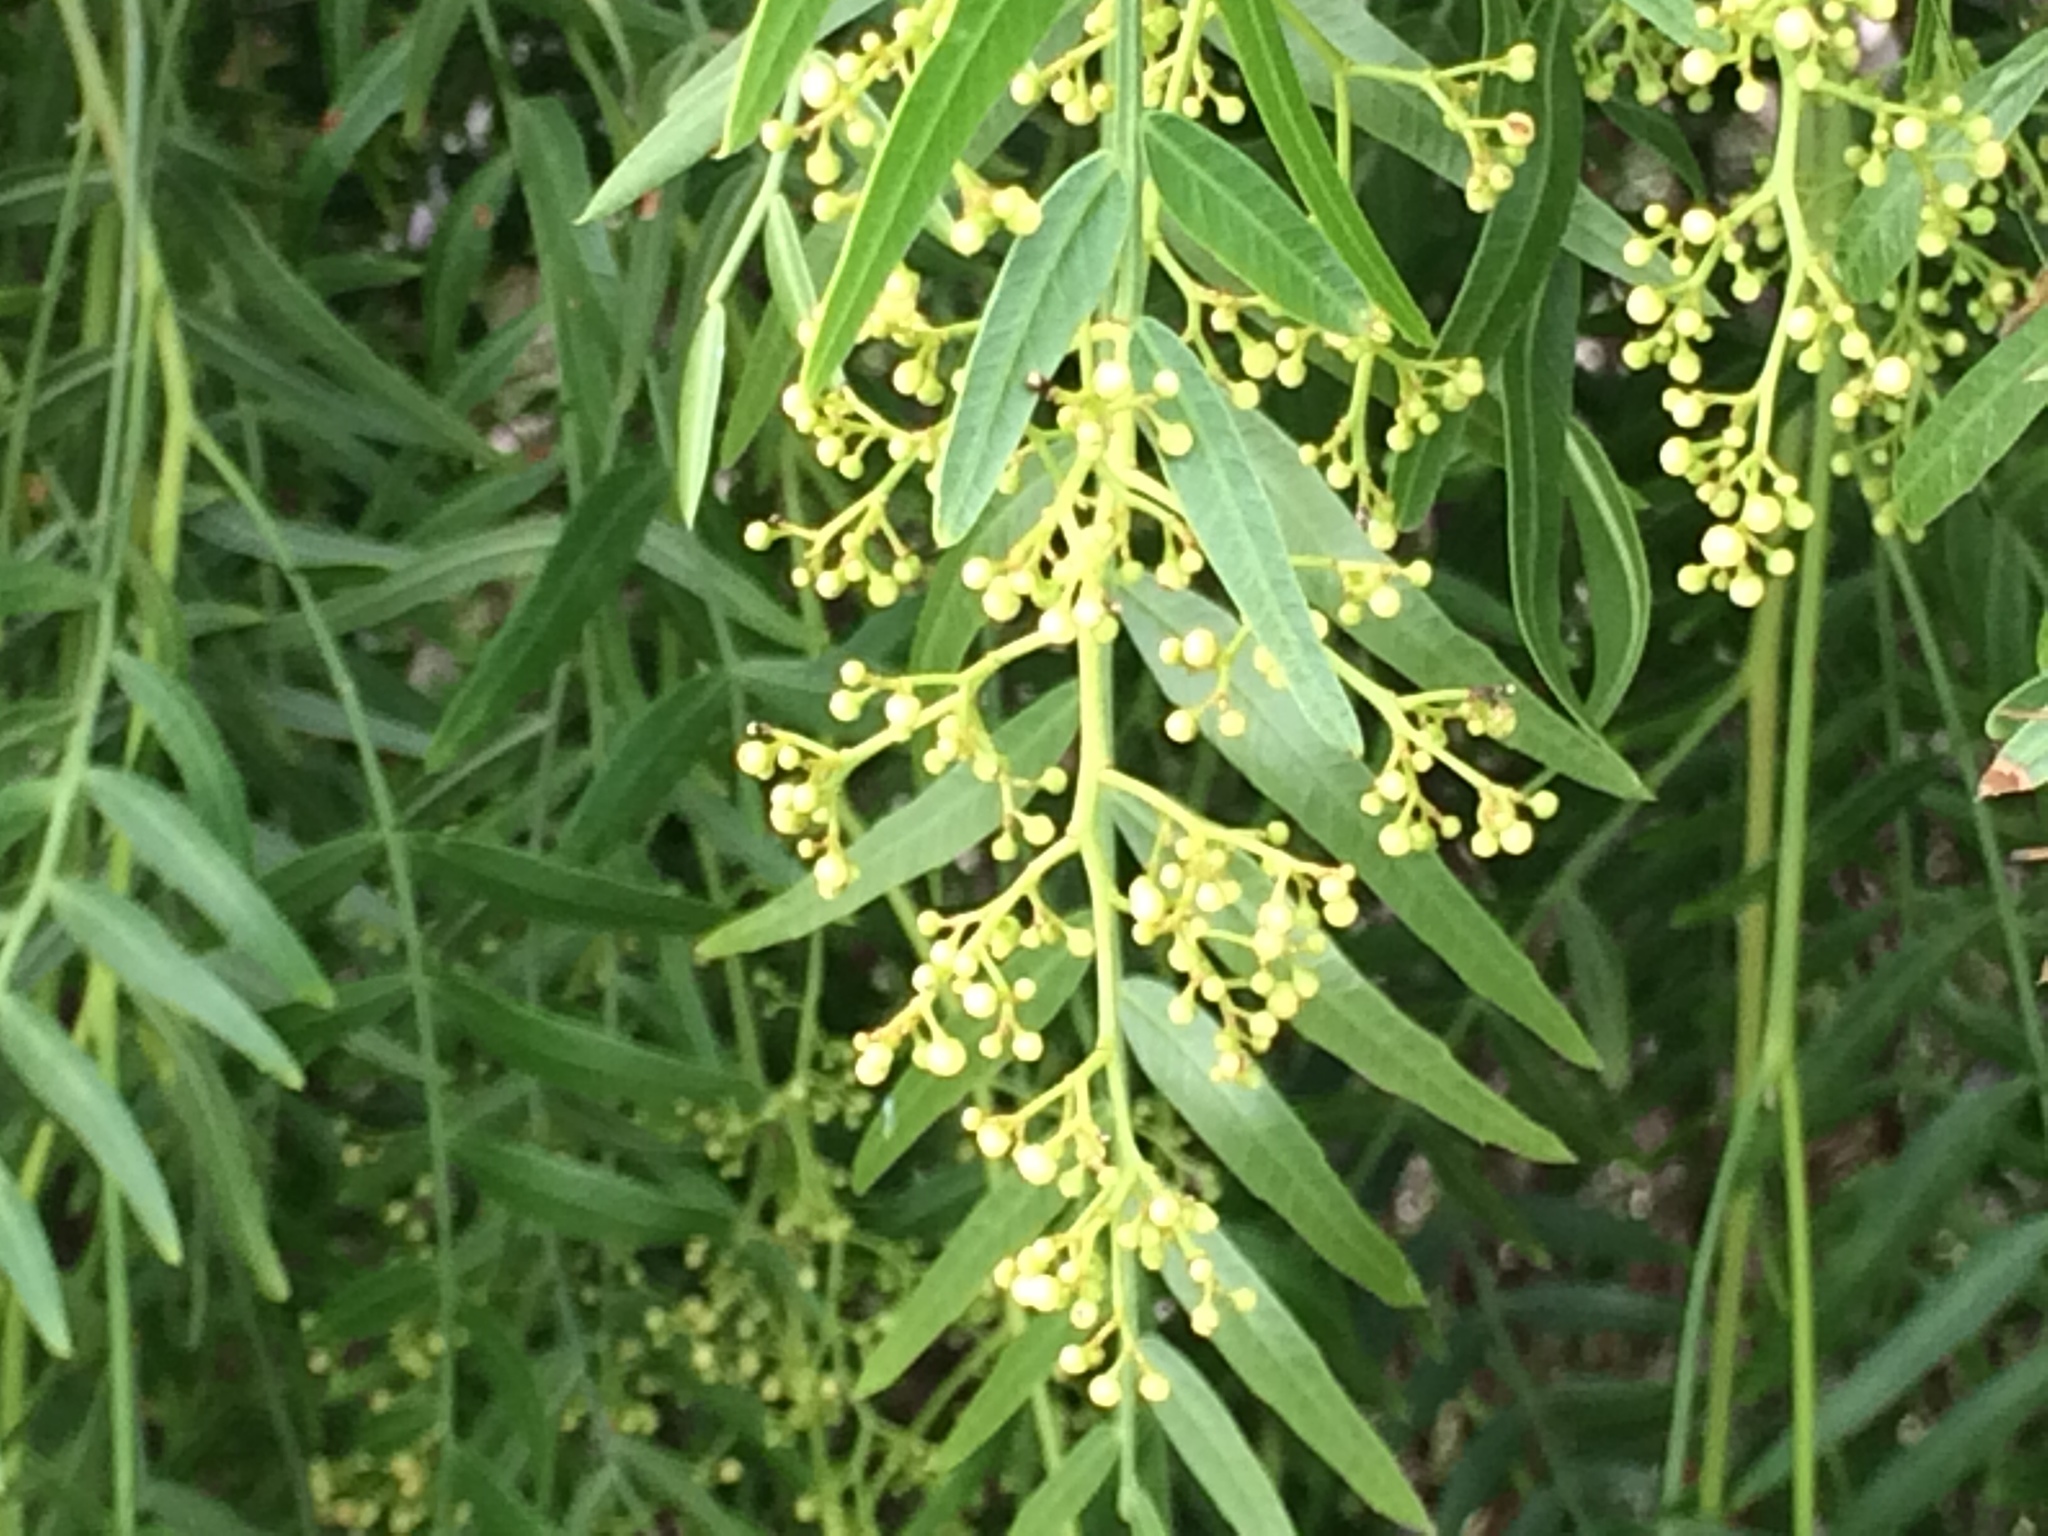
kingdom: Plantae
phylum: Tracheophyta
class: Magnoliopsida
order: Sapindales
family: Anacardiaceae
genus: Schinus
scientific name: Schinus molle
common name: Peruvian peppertree
